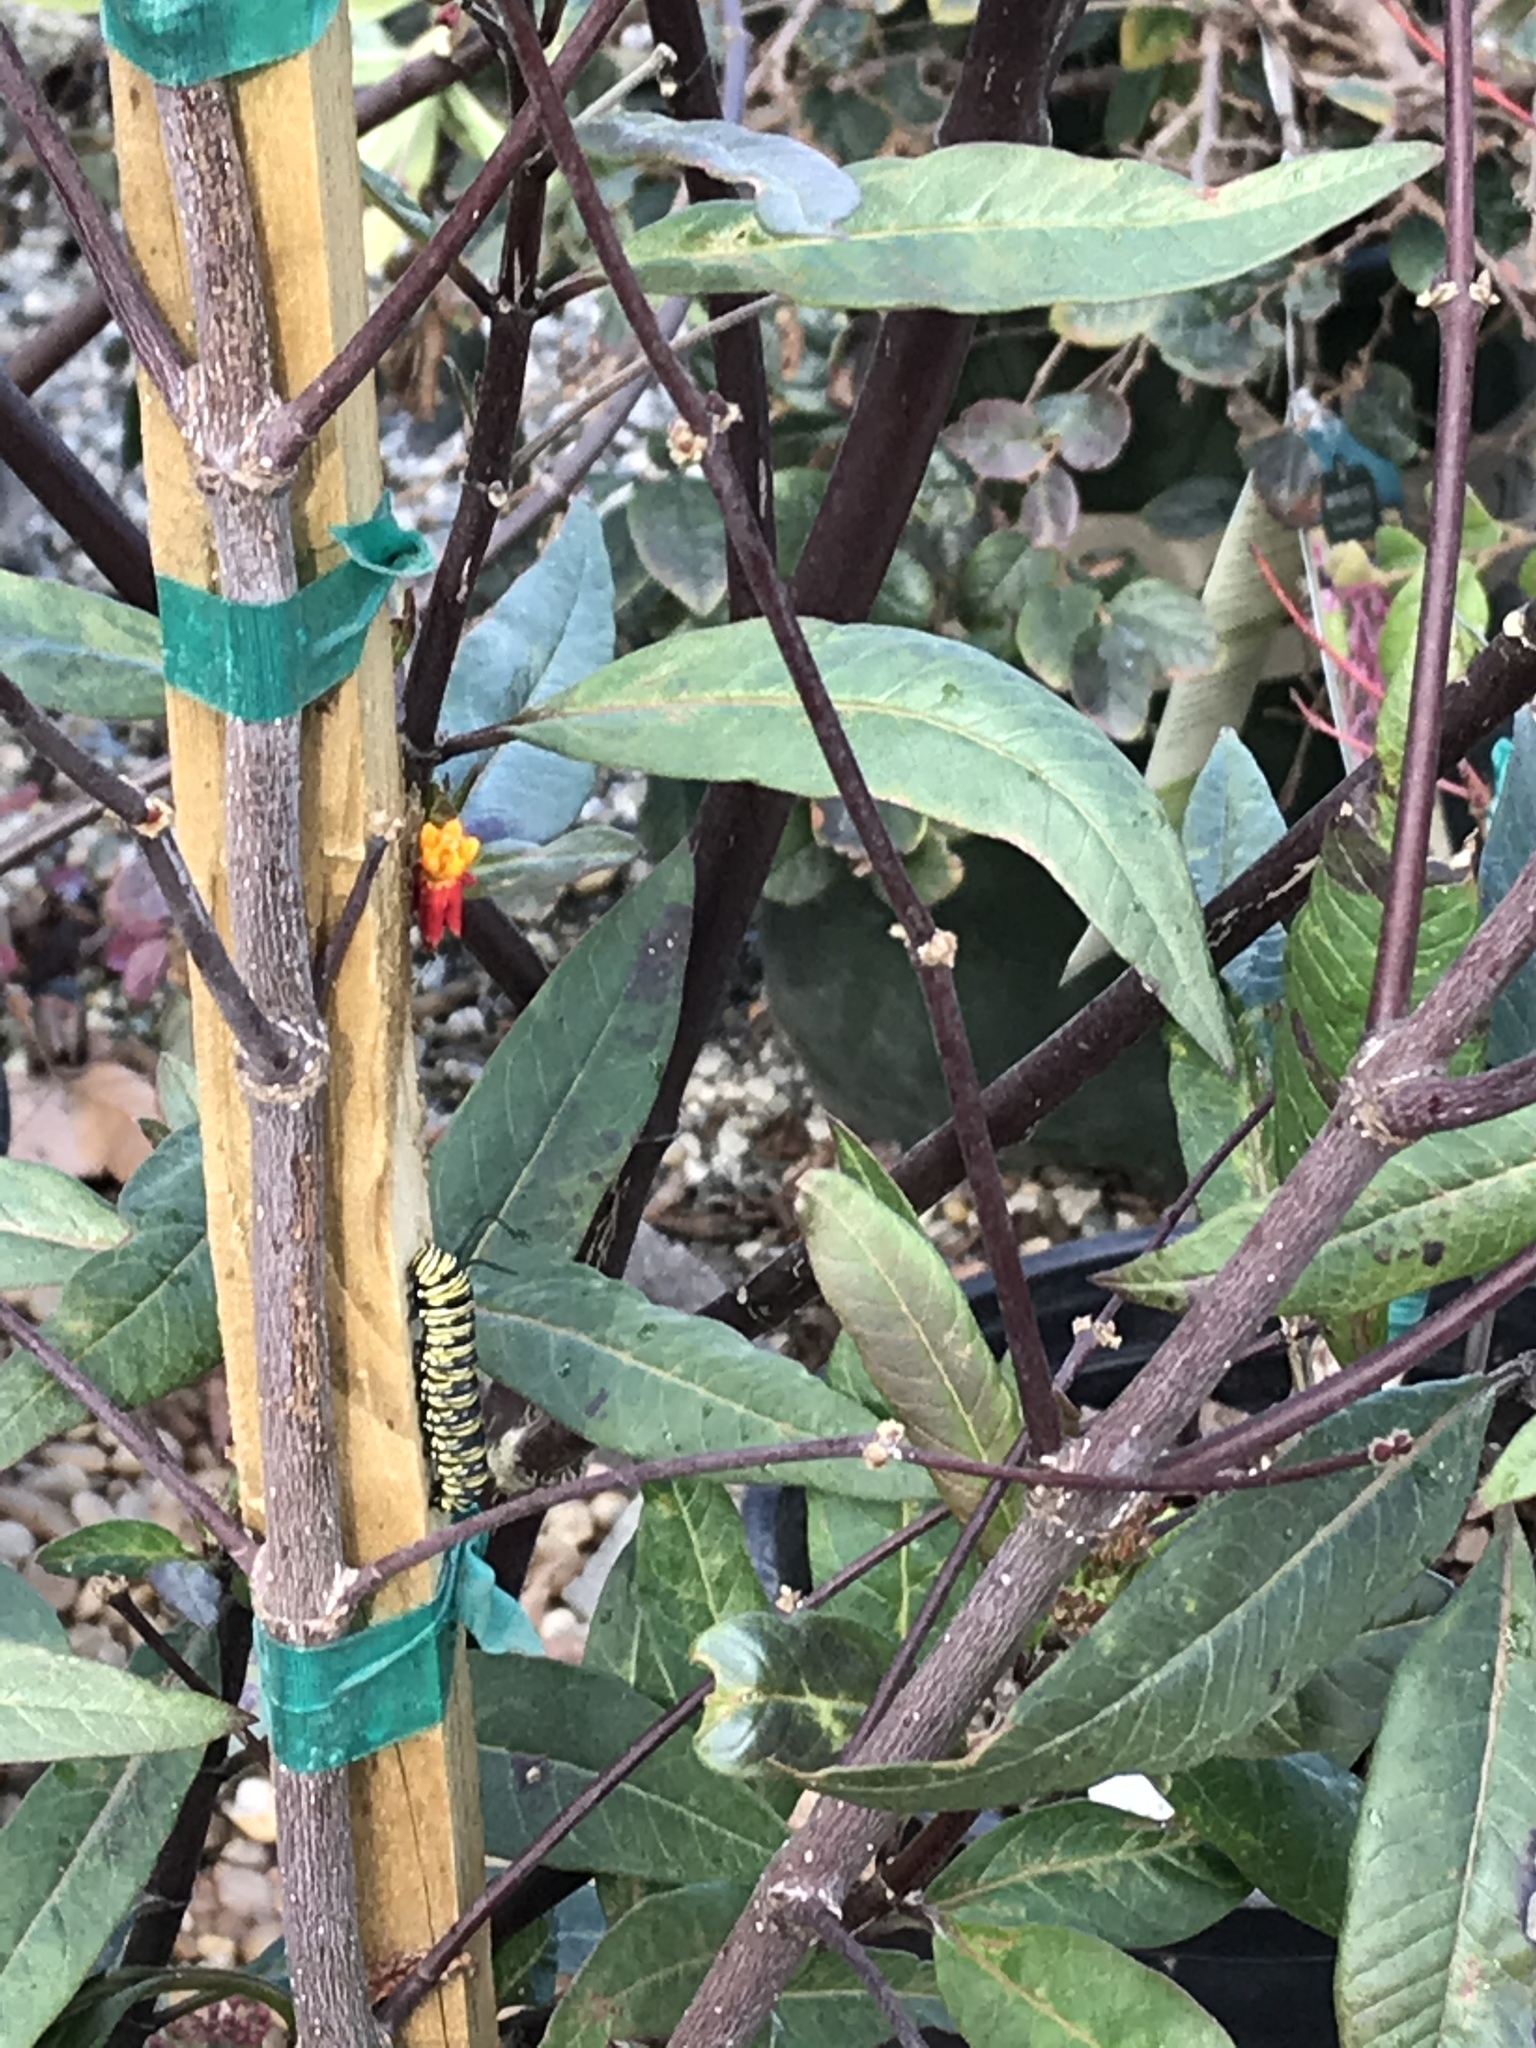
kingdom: Animalia
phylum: Arthropoda
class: Insecta
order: Lepidoptera
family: Nymphalidae
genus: Danaus
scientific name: Danaus plexippus
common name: Monarch
